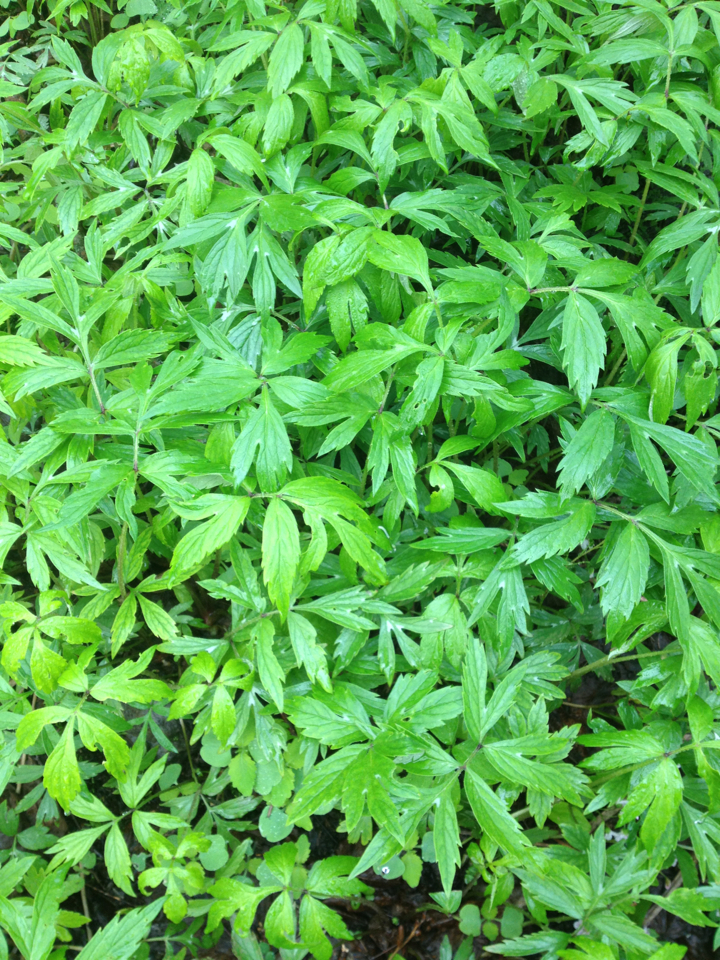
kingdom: Plantae
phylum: Tracheophyta
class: Magnoliopsida
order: Boraginales
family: Hydrophyllaceae
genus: Hydrophyllum
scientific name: Hydrophyllum virginianum
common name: Virginia waterleaf
